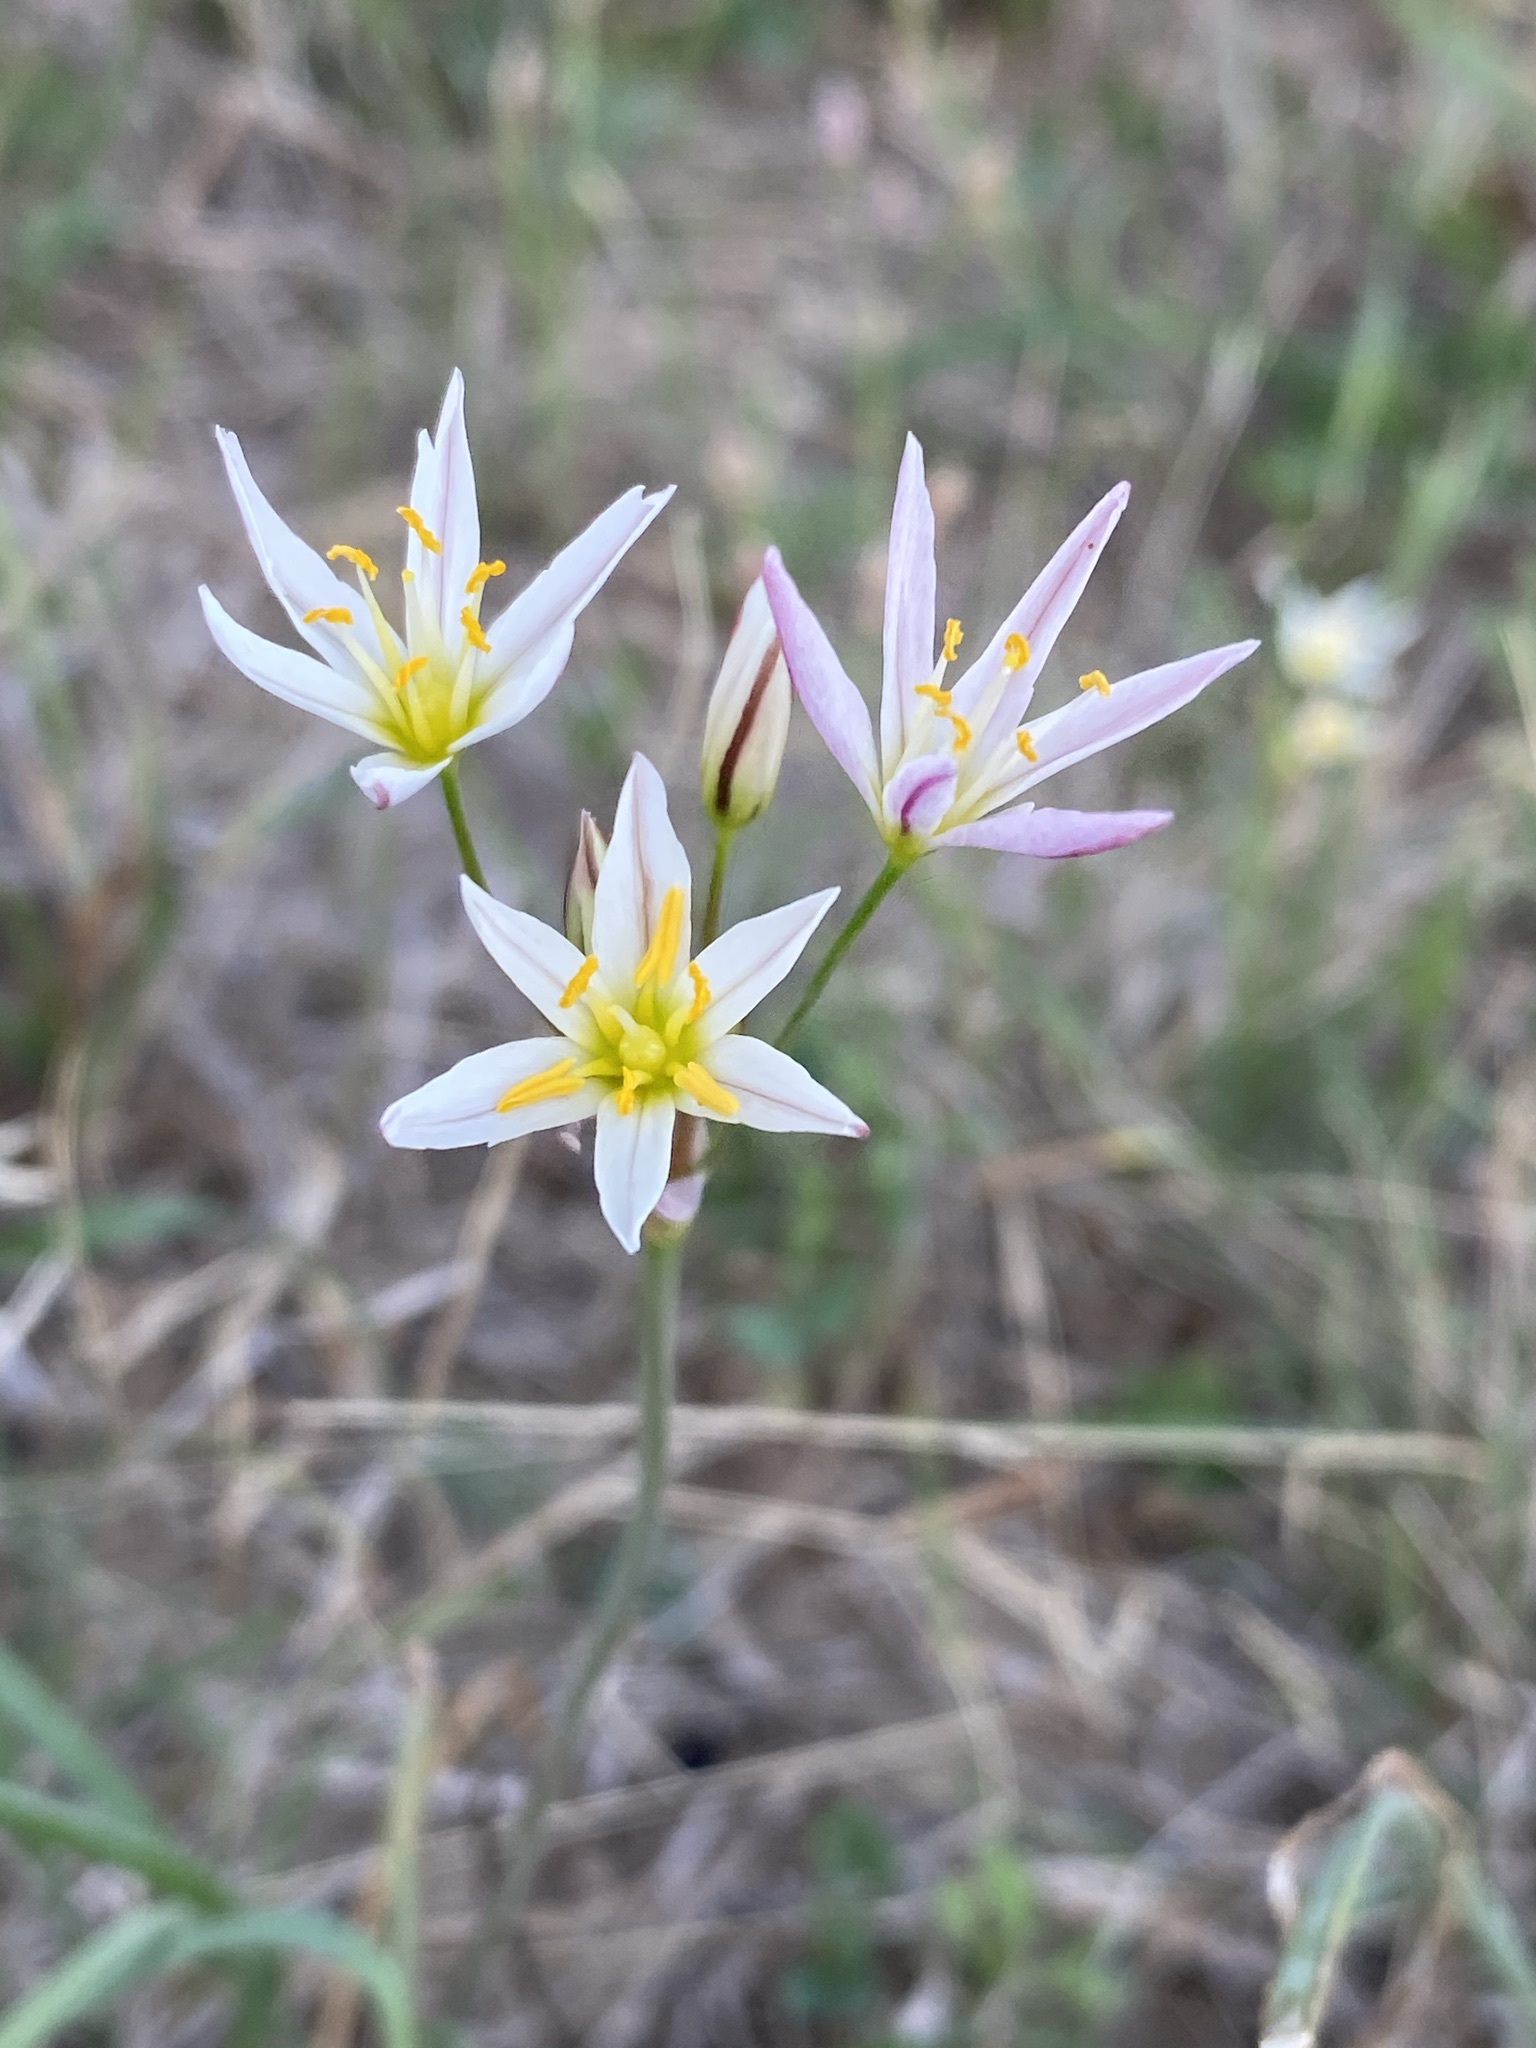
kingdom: Plantae
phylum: Tracheophyta
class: Liliopsida
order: Asparagales
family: Amaryllidaceae
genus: Nothoscordum
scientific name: Nothoscordum bivalve
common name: Crow-poison
